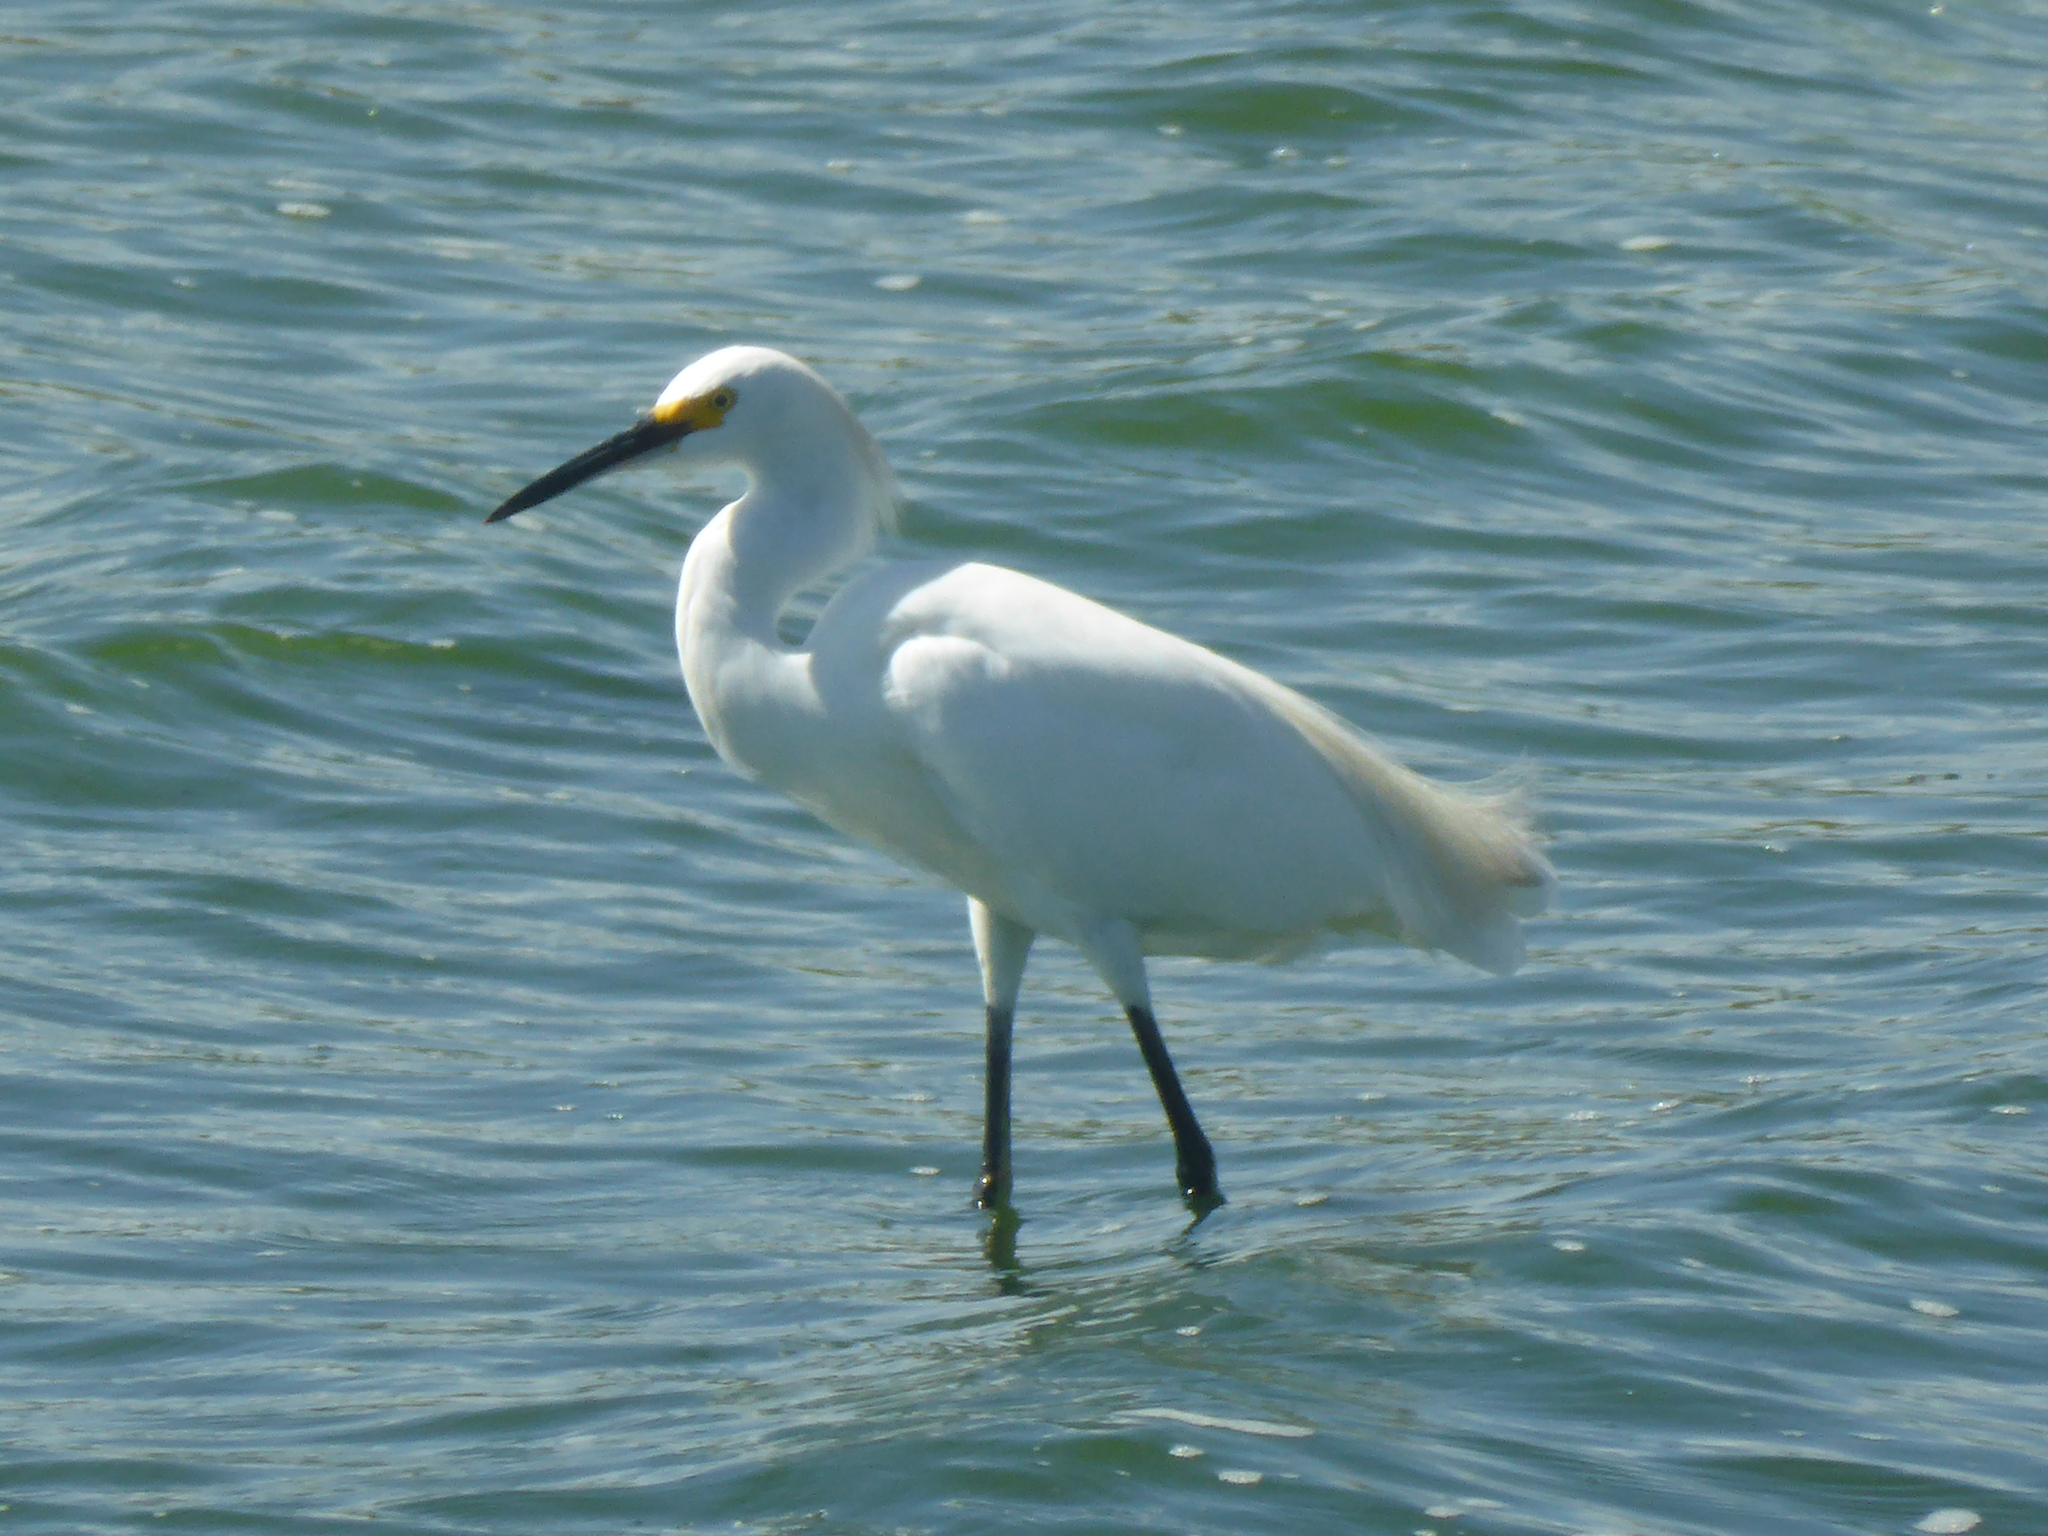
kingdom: Animalia
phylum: Chordata
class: Aves
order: Pelecaniformes
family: Ardeidae
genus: Egretta
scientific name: Egretta thula
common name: Snowy egret
